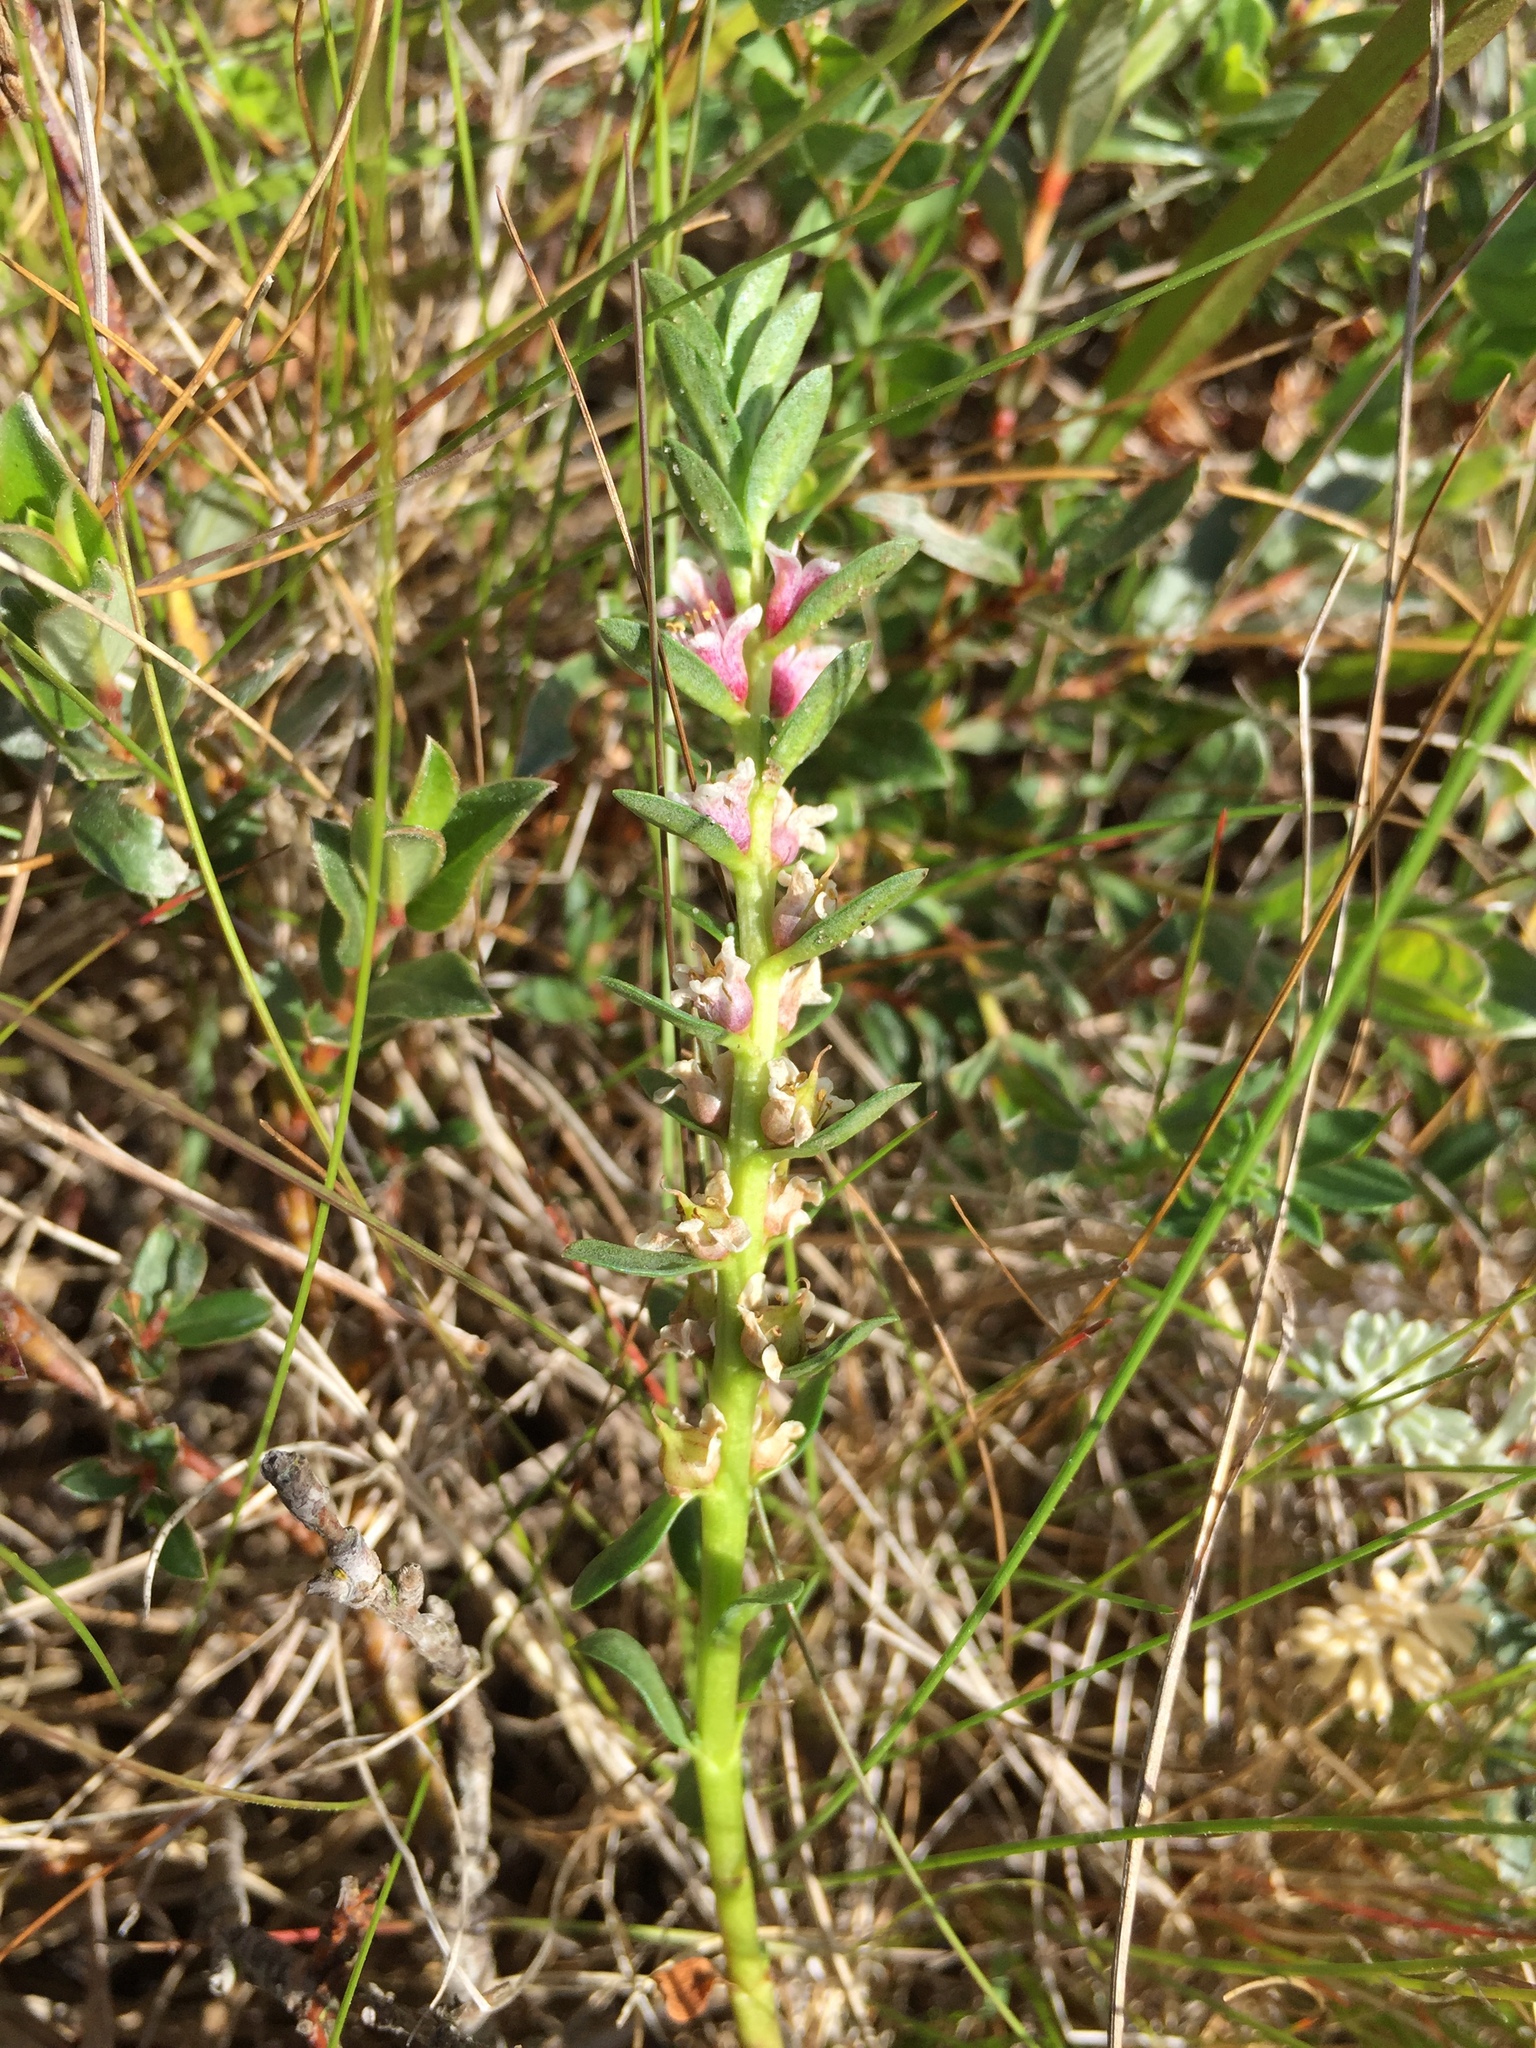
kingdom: Plantae
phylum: Tracheophyta
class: Magnoliopsida
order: Ericales
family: Primulaceae
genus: Lysimachia
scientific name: Lysimachia maritima
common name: Sea milkwort
